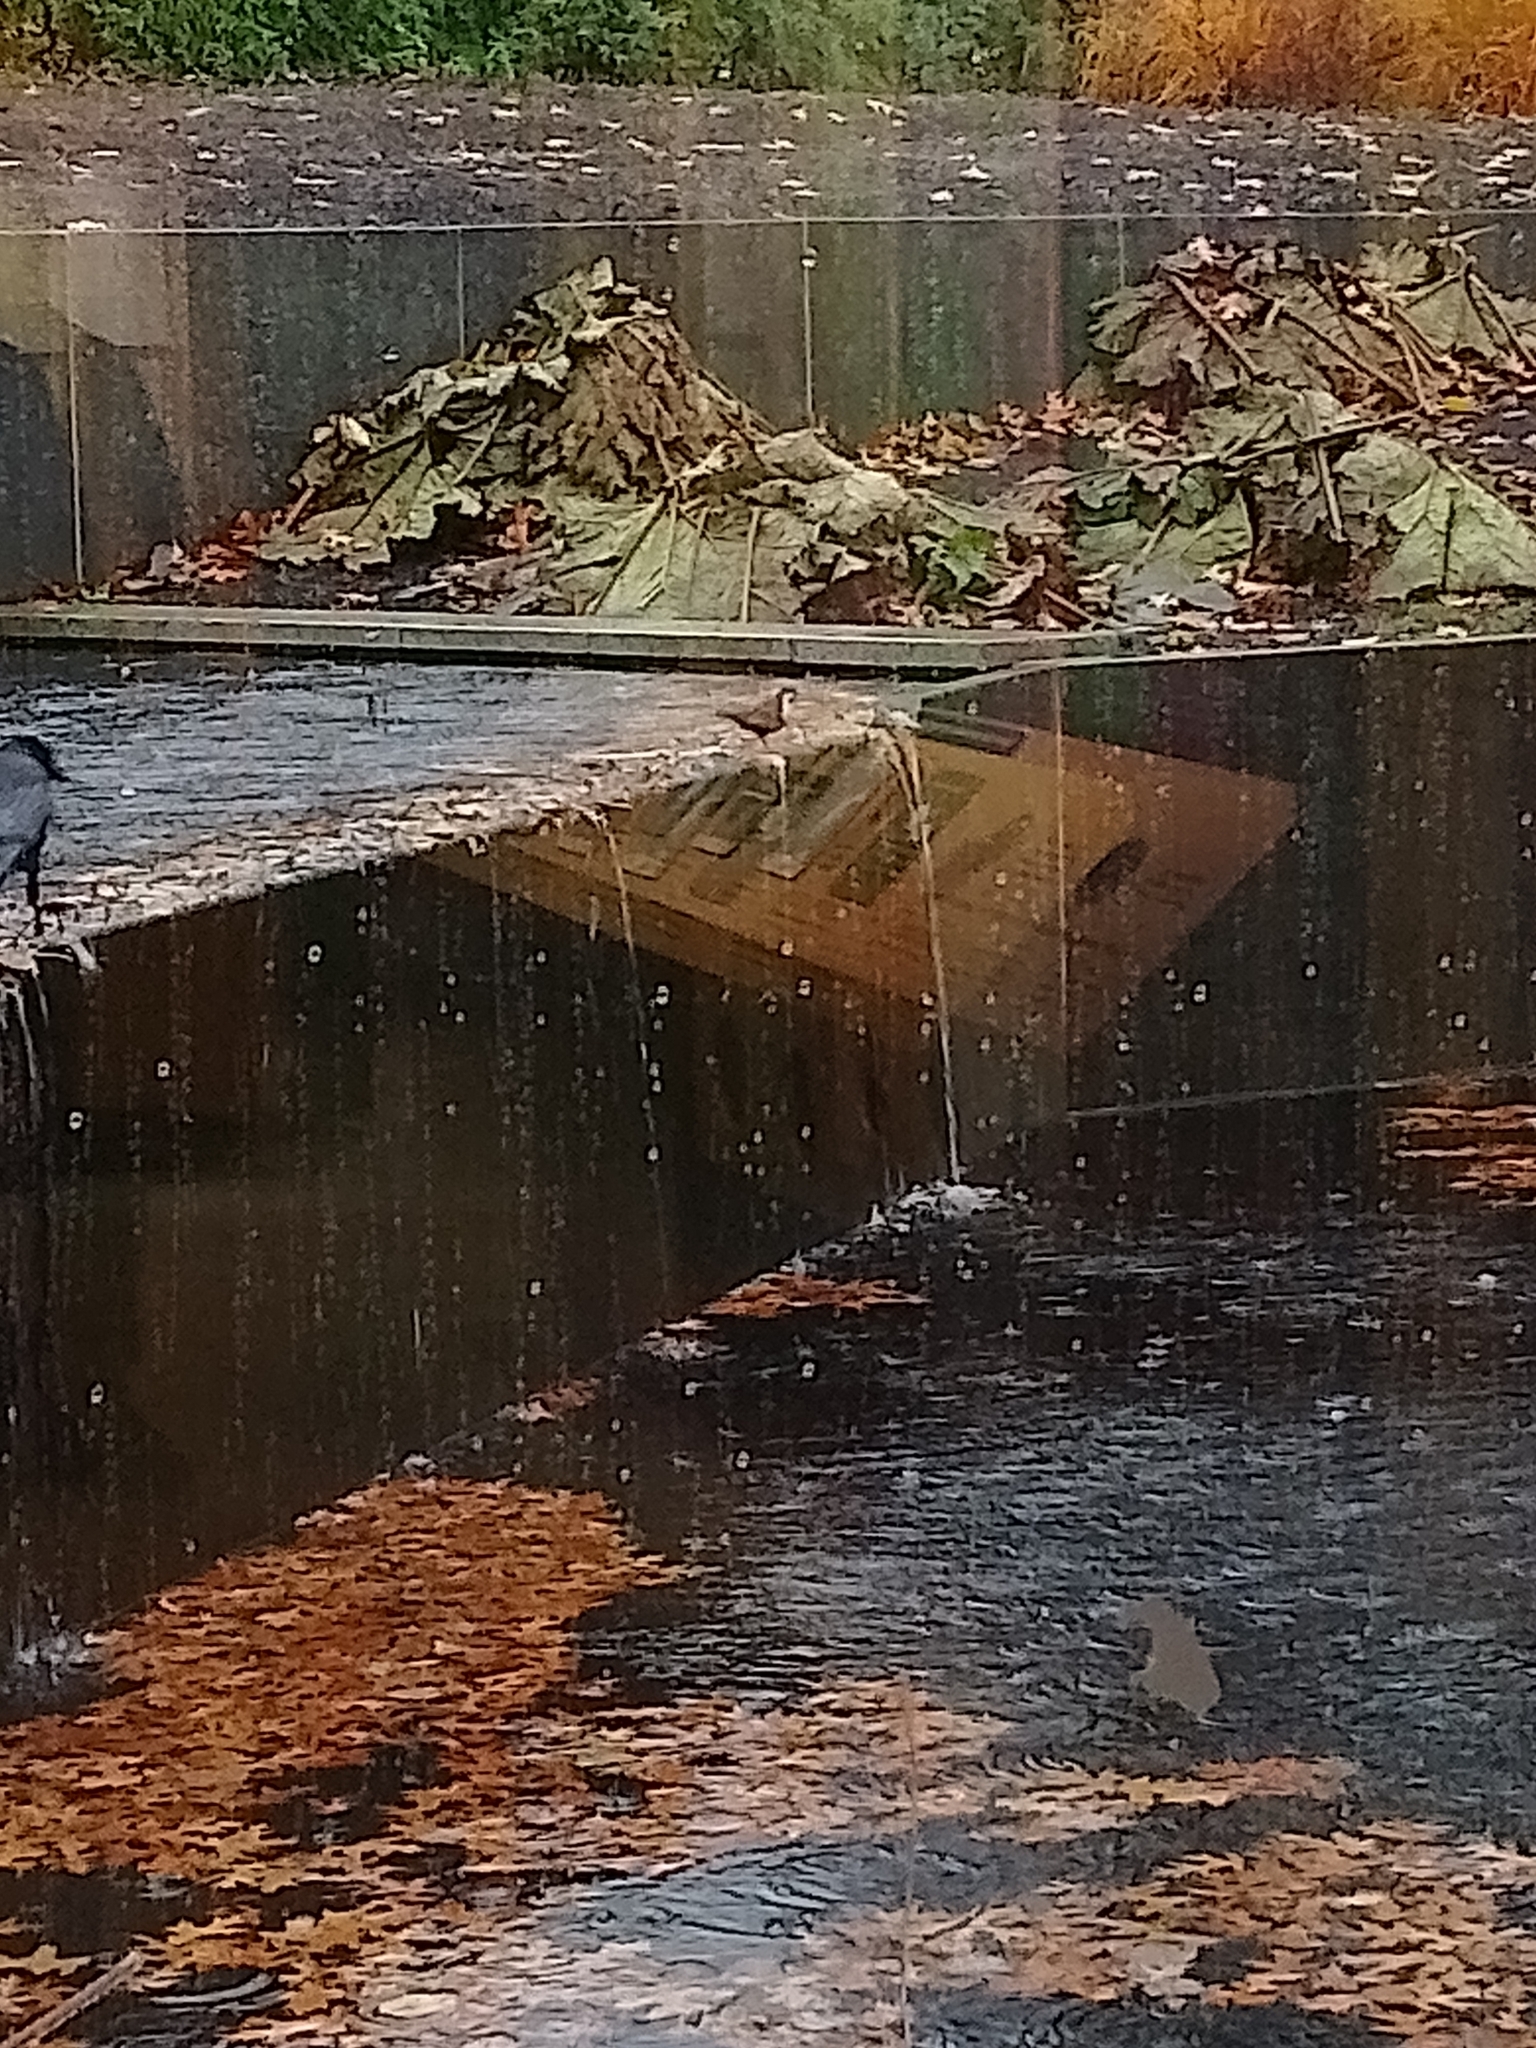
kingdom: Animalia
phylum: Chordata
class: Aves
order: Passeriformes
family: Cinclidae
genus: Cinclus
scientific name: Cinclus cinclus
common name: White-throated dipper
